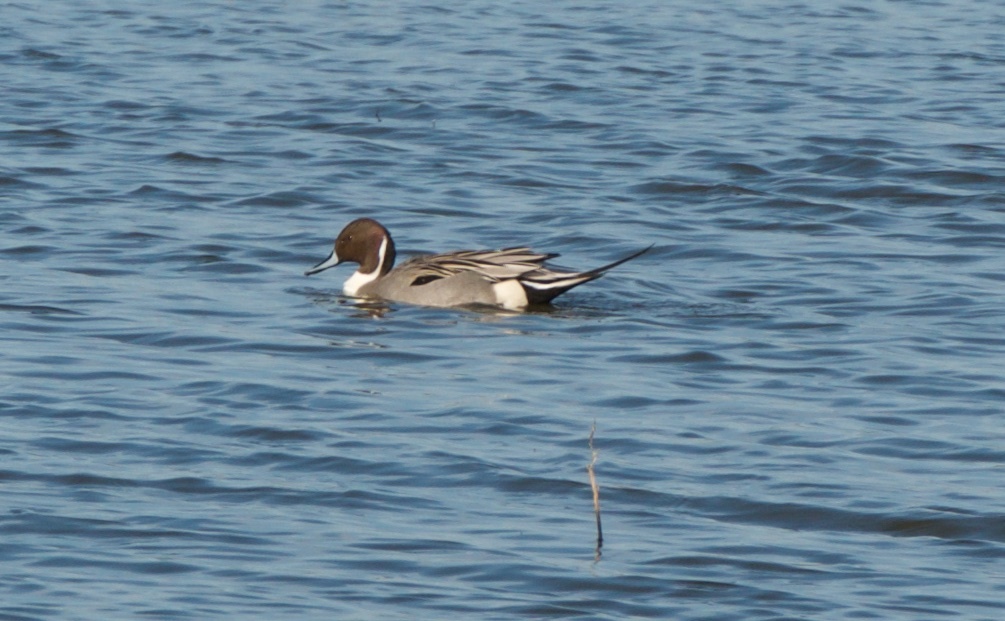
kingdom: Animalia
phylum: Chordata
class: Aves
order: Anseriformes
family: Anatidae
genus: Anas
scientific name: Anas acuta
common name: Northern pintail
